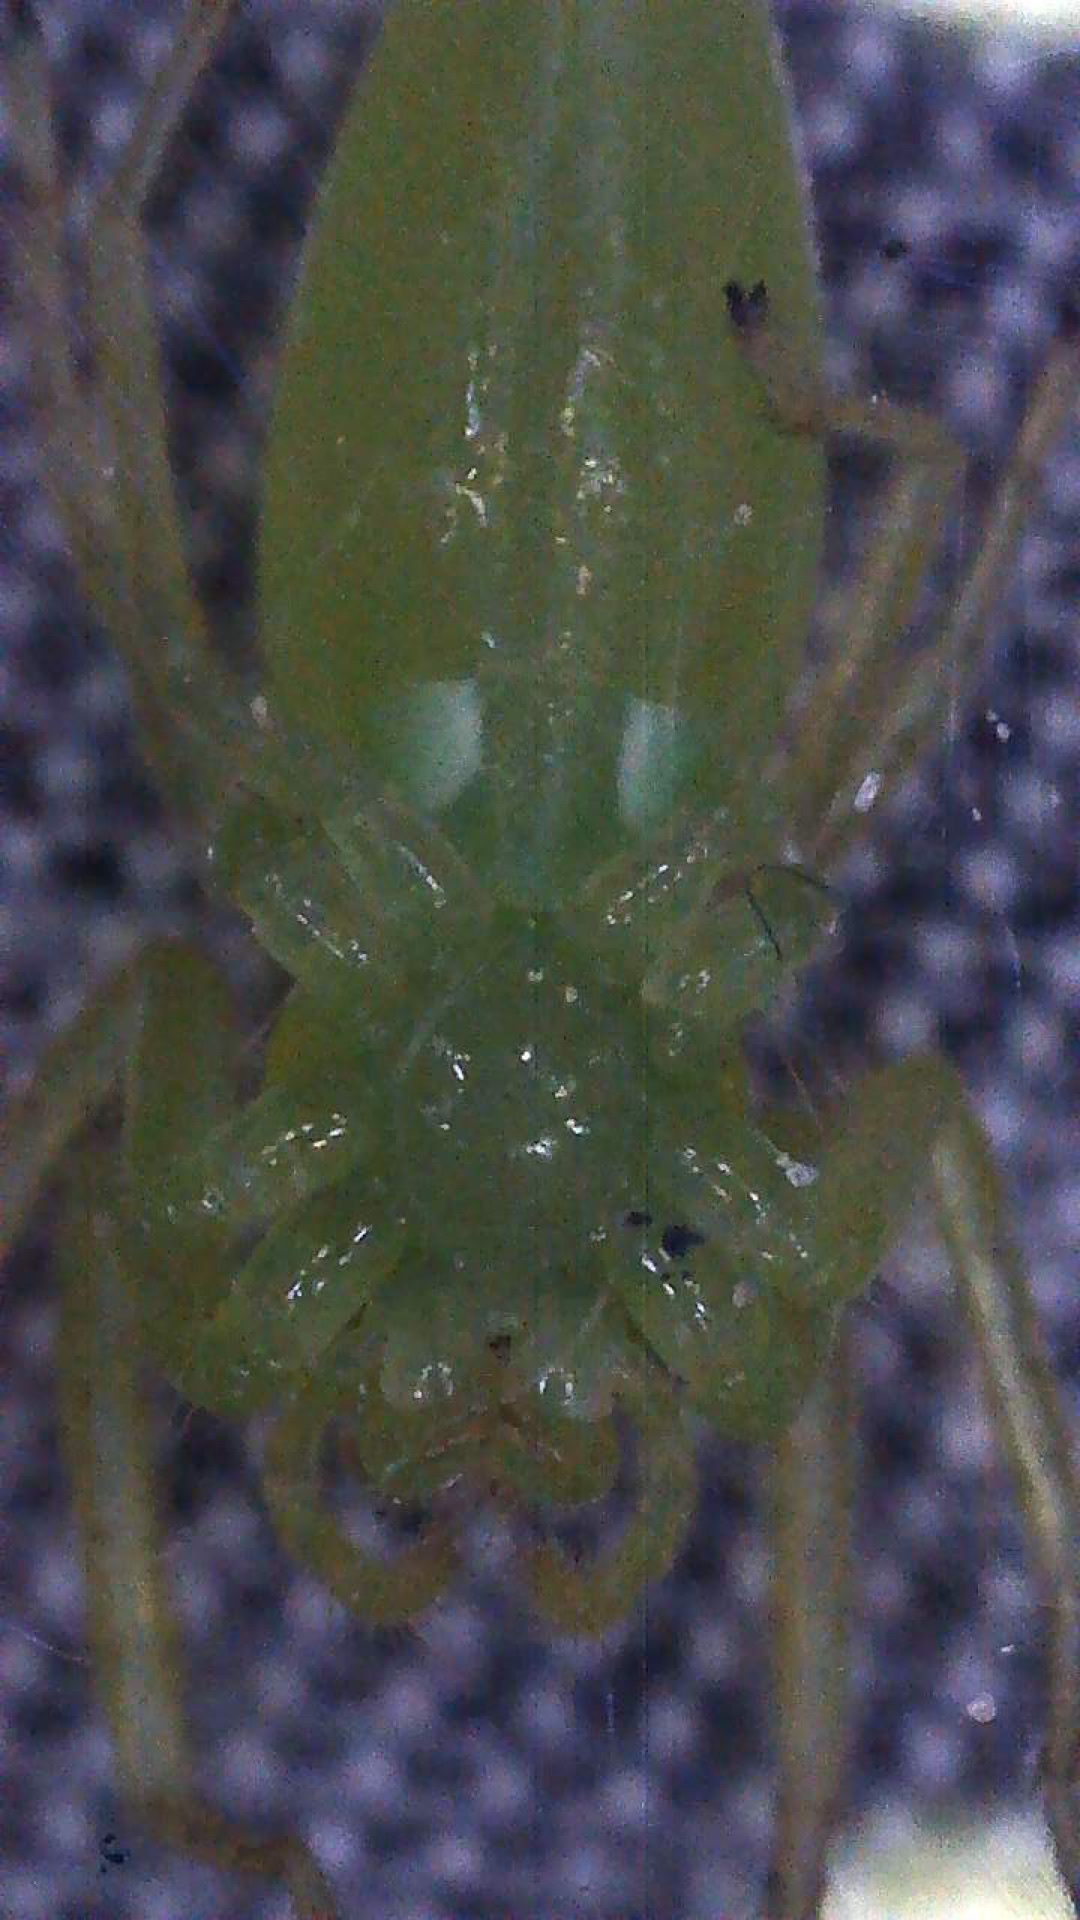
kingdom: Animalia
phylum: Arthropoda
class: Arachnida
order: Araneae
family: Salticidae
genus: Lyssomanes
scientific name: Lyssomanes viridis
